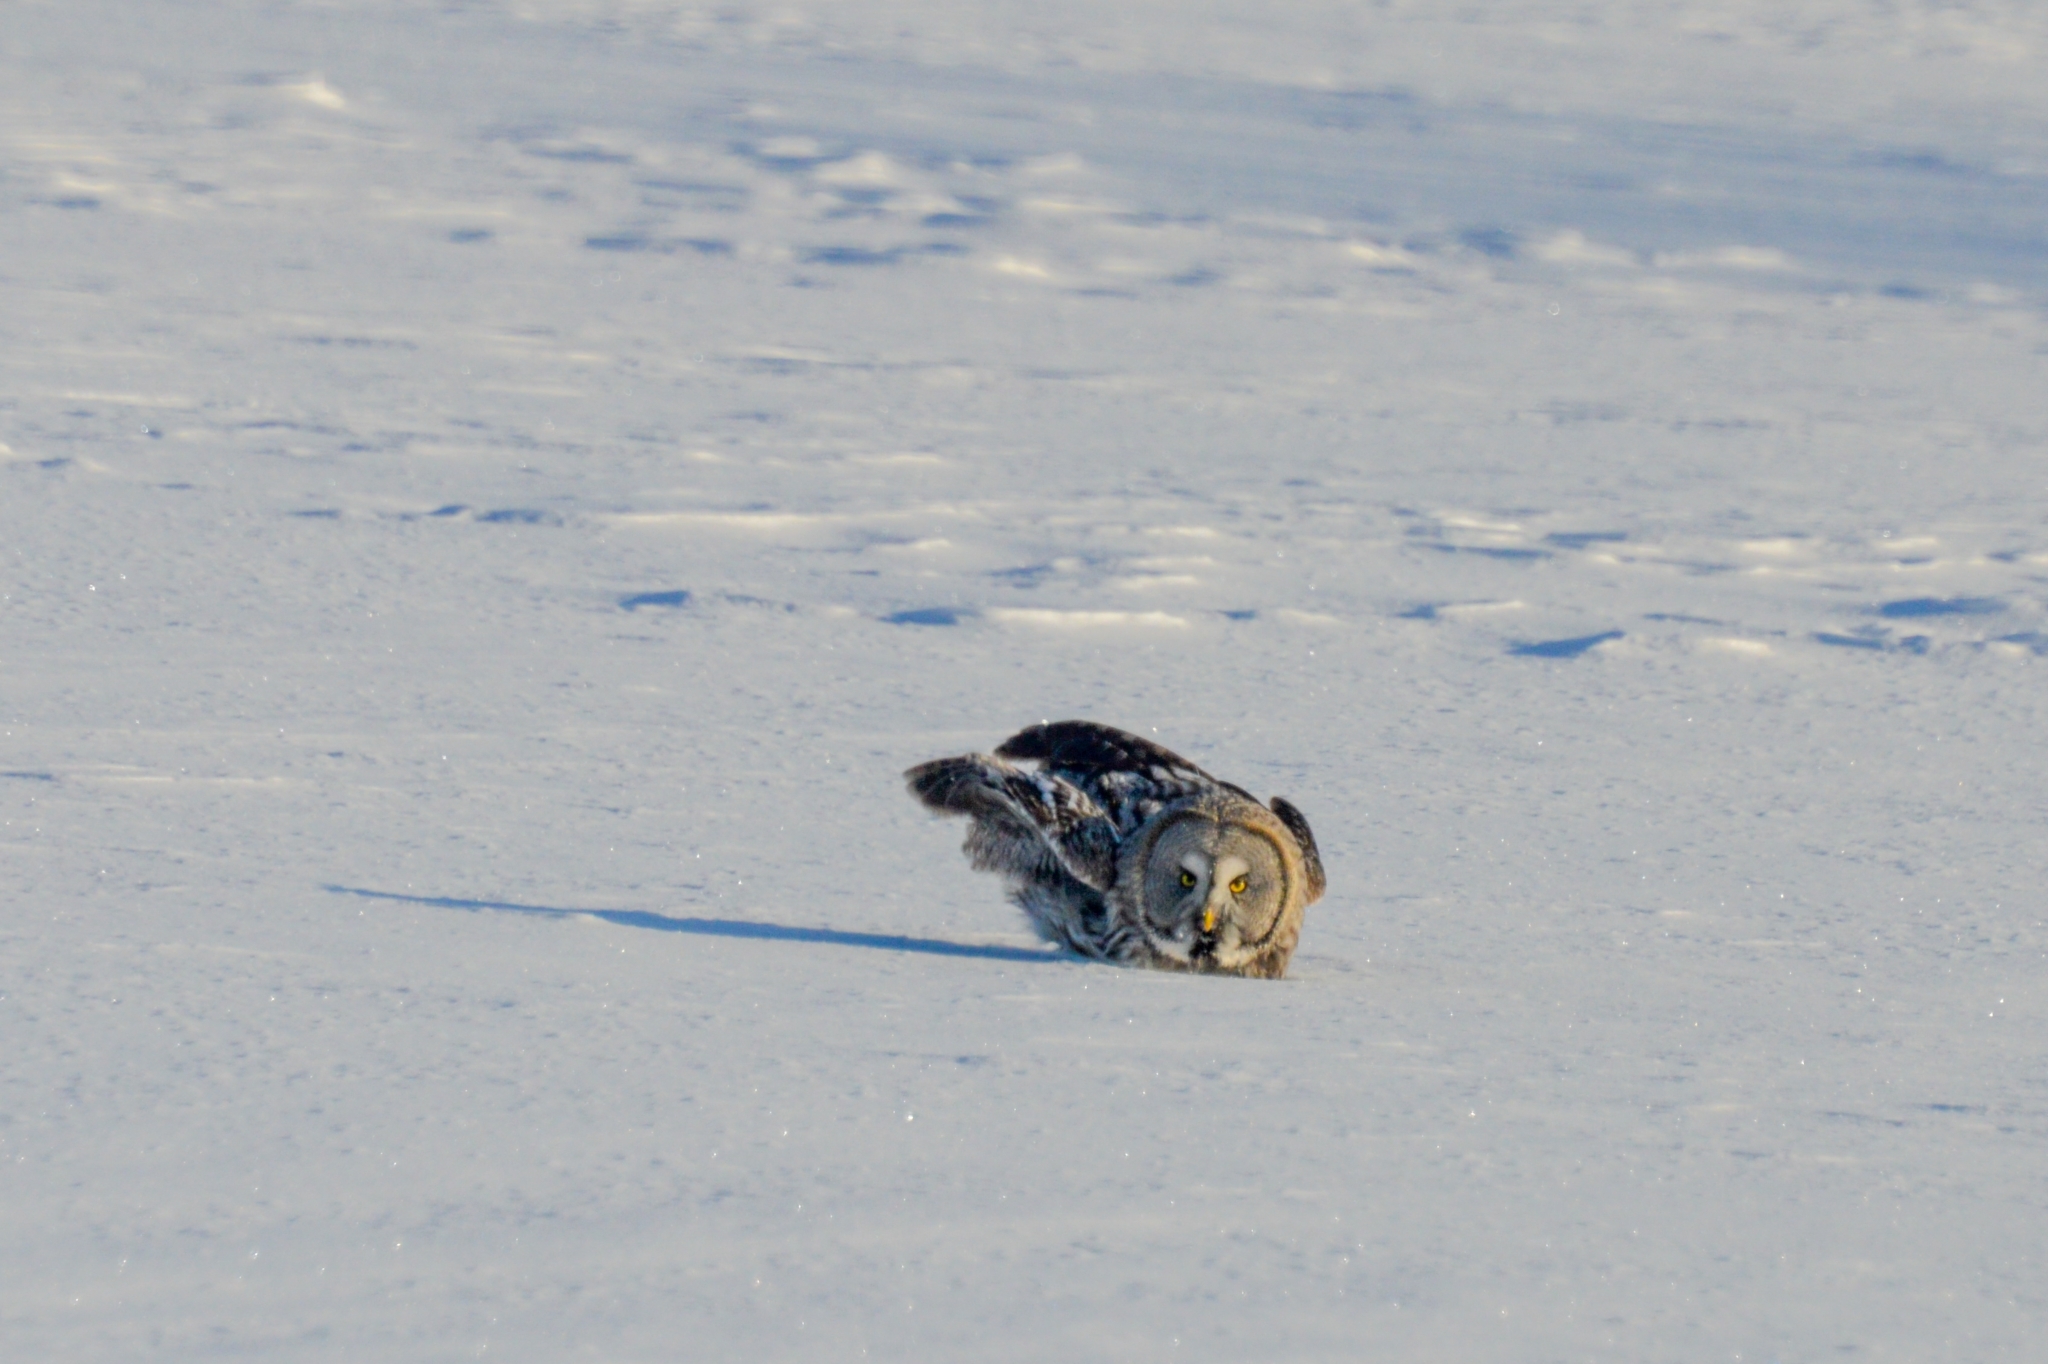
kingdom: Animalia
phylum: Chordata
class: Aves
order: Strigiformes
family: Strigidae
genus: Strix
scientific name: Strix nebulosa
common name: Great grey owl
